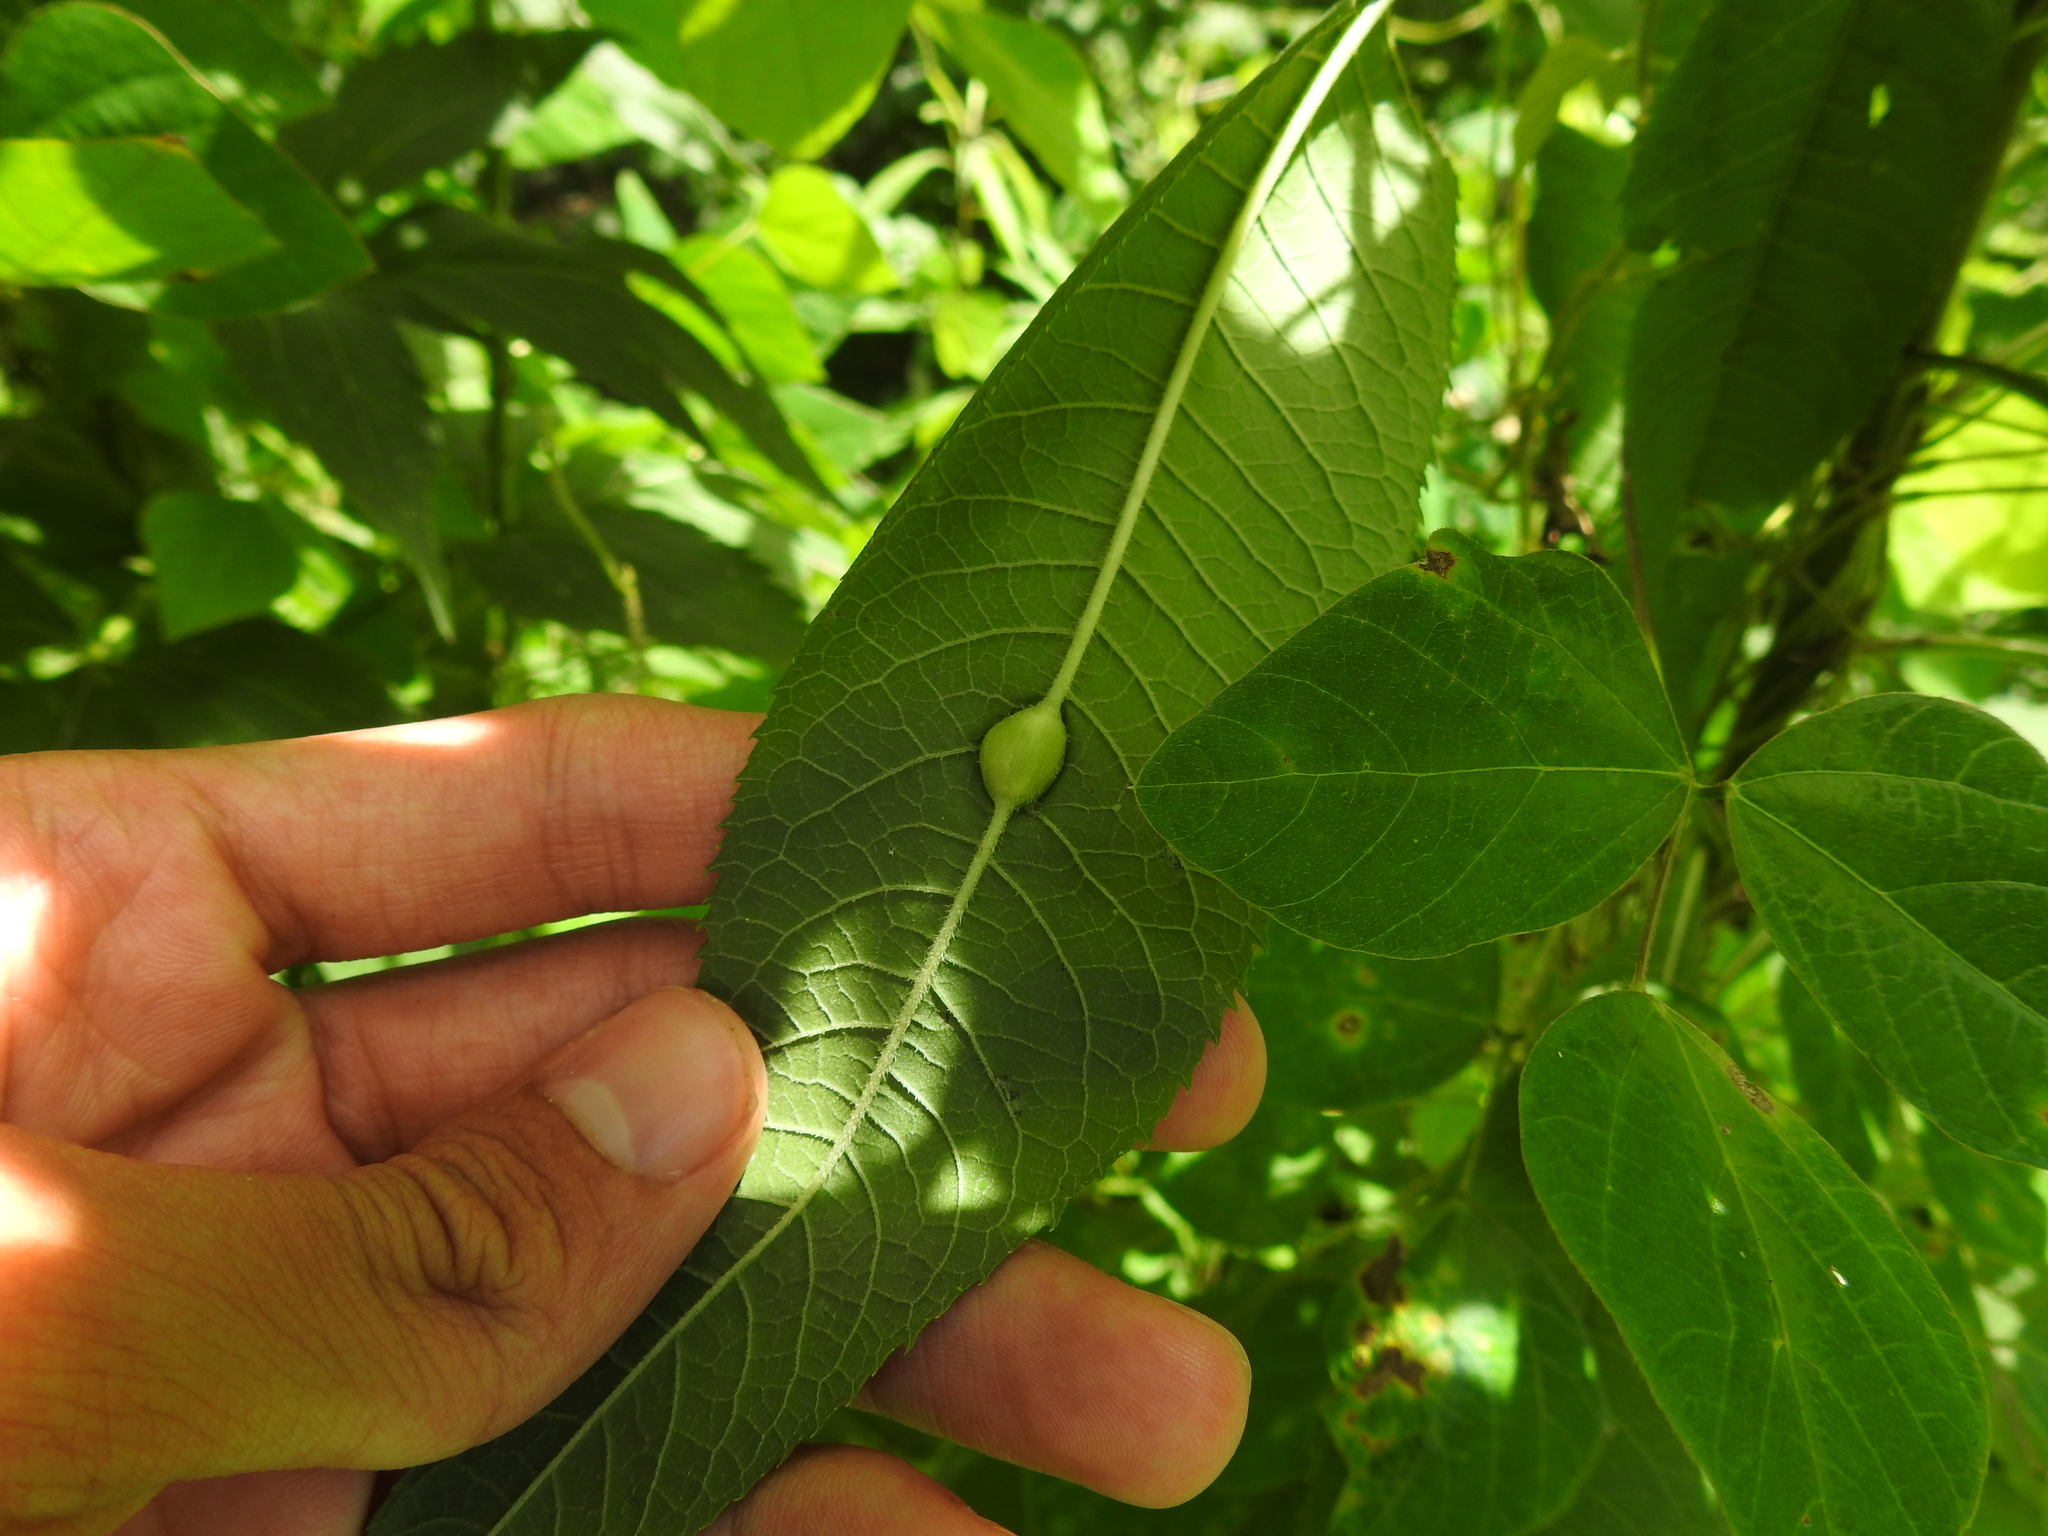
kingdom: Animalia
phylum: Arthropoda
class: Insecta
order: Diptera
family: Cecidomyiidae
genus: Neolasioptera
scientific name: Neolasioptera vernoniae
